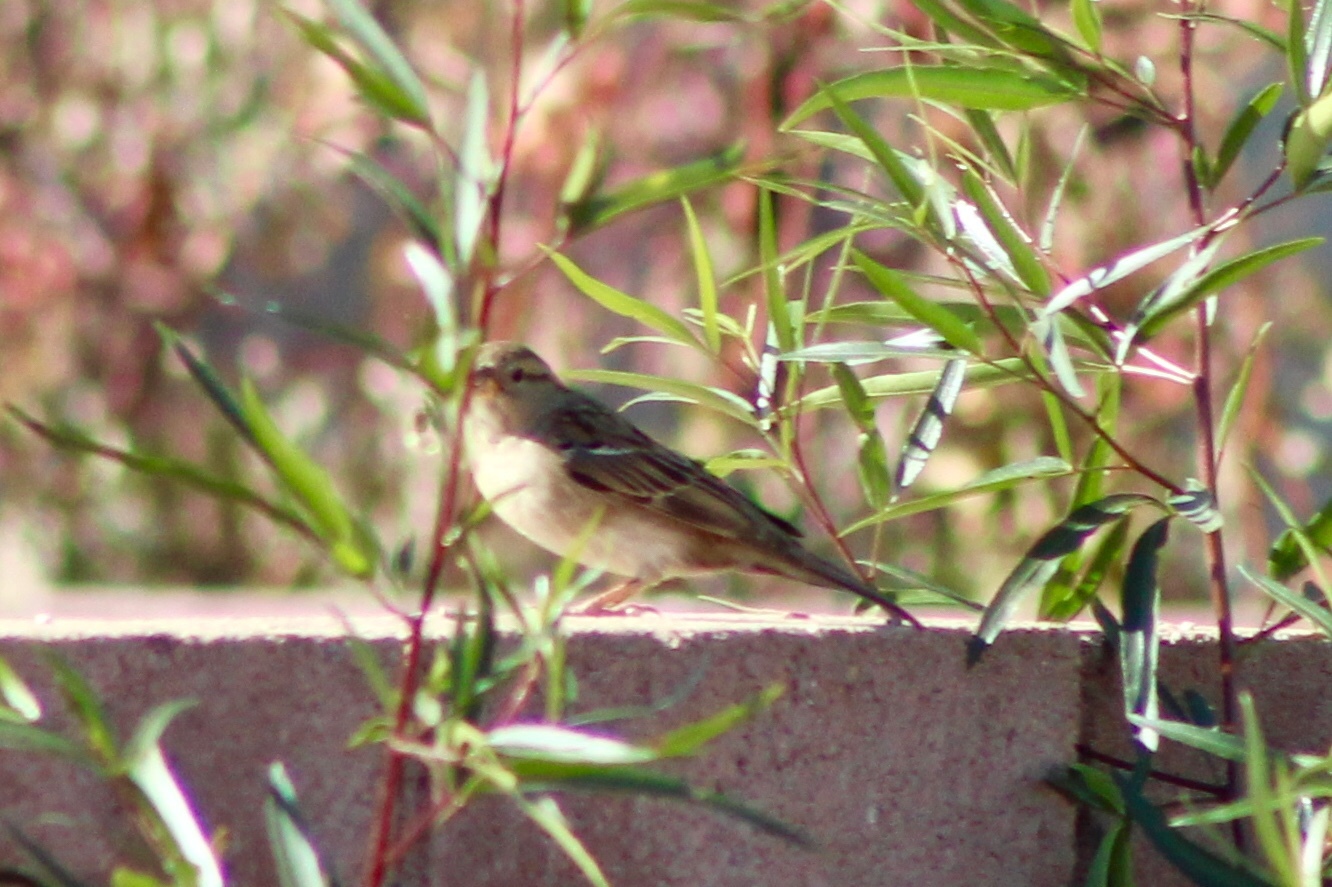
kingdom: Animalia
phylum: Chordata
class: Aves
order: Passeriformes
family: Passeridae
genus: Passer
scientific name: Passer domesticus
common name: House sparrow
